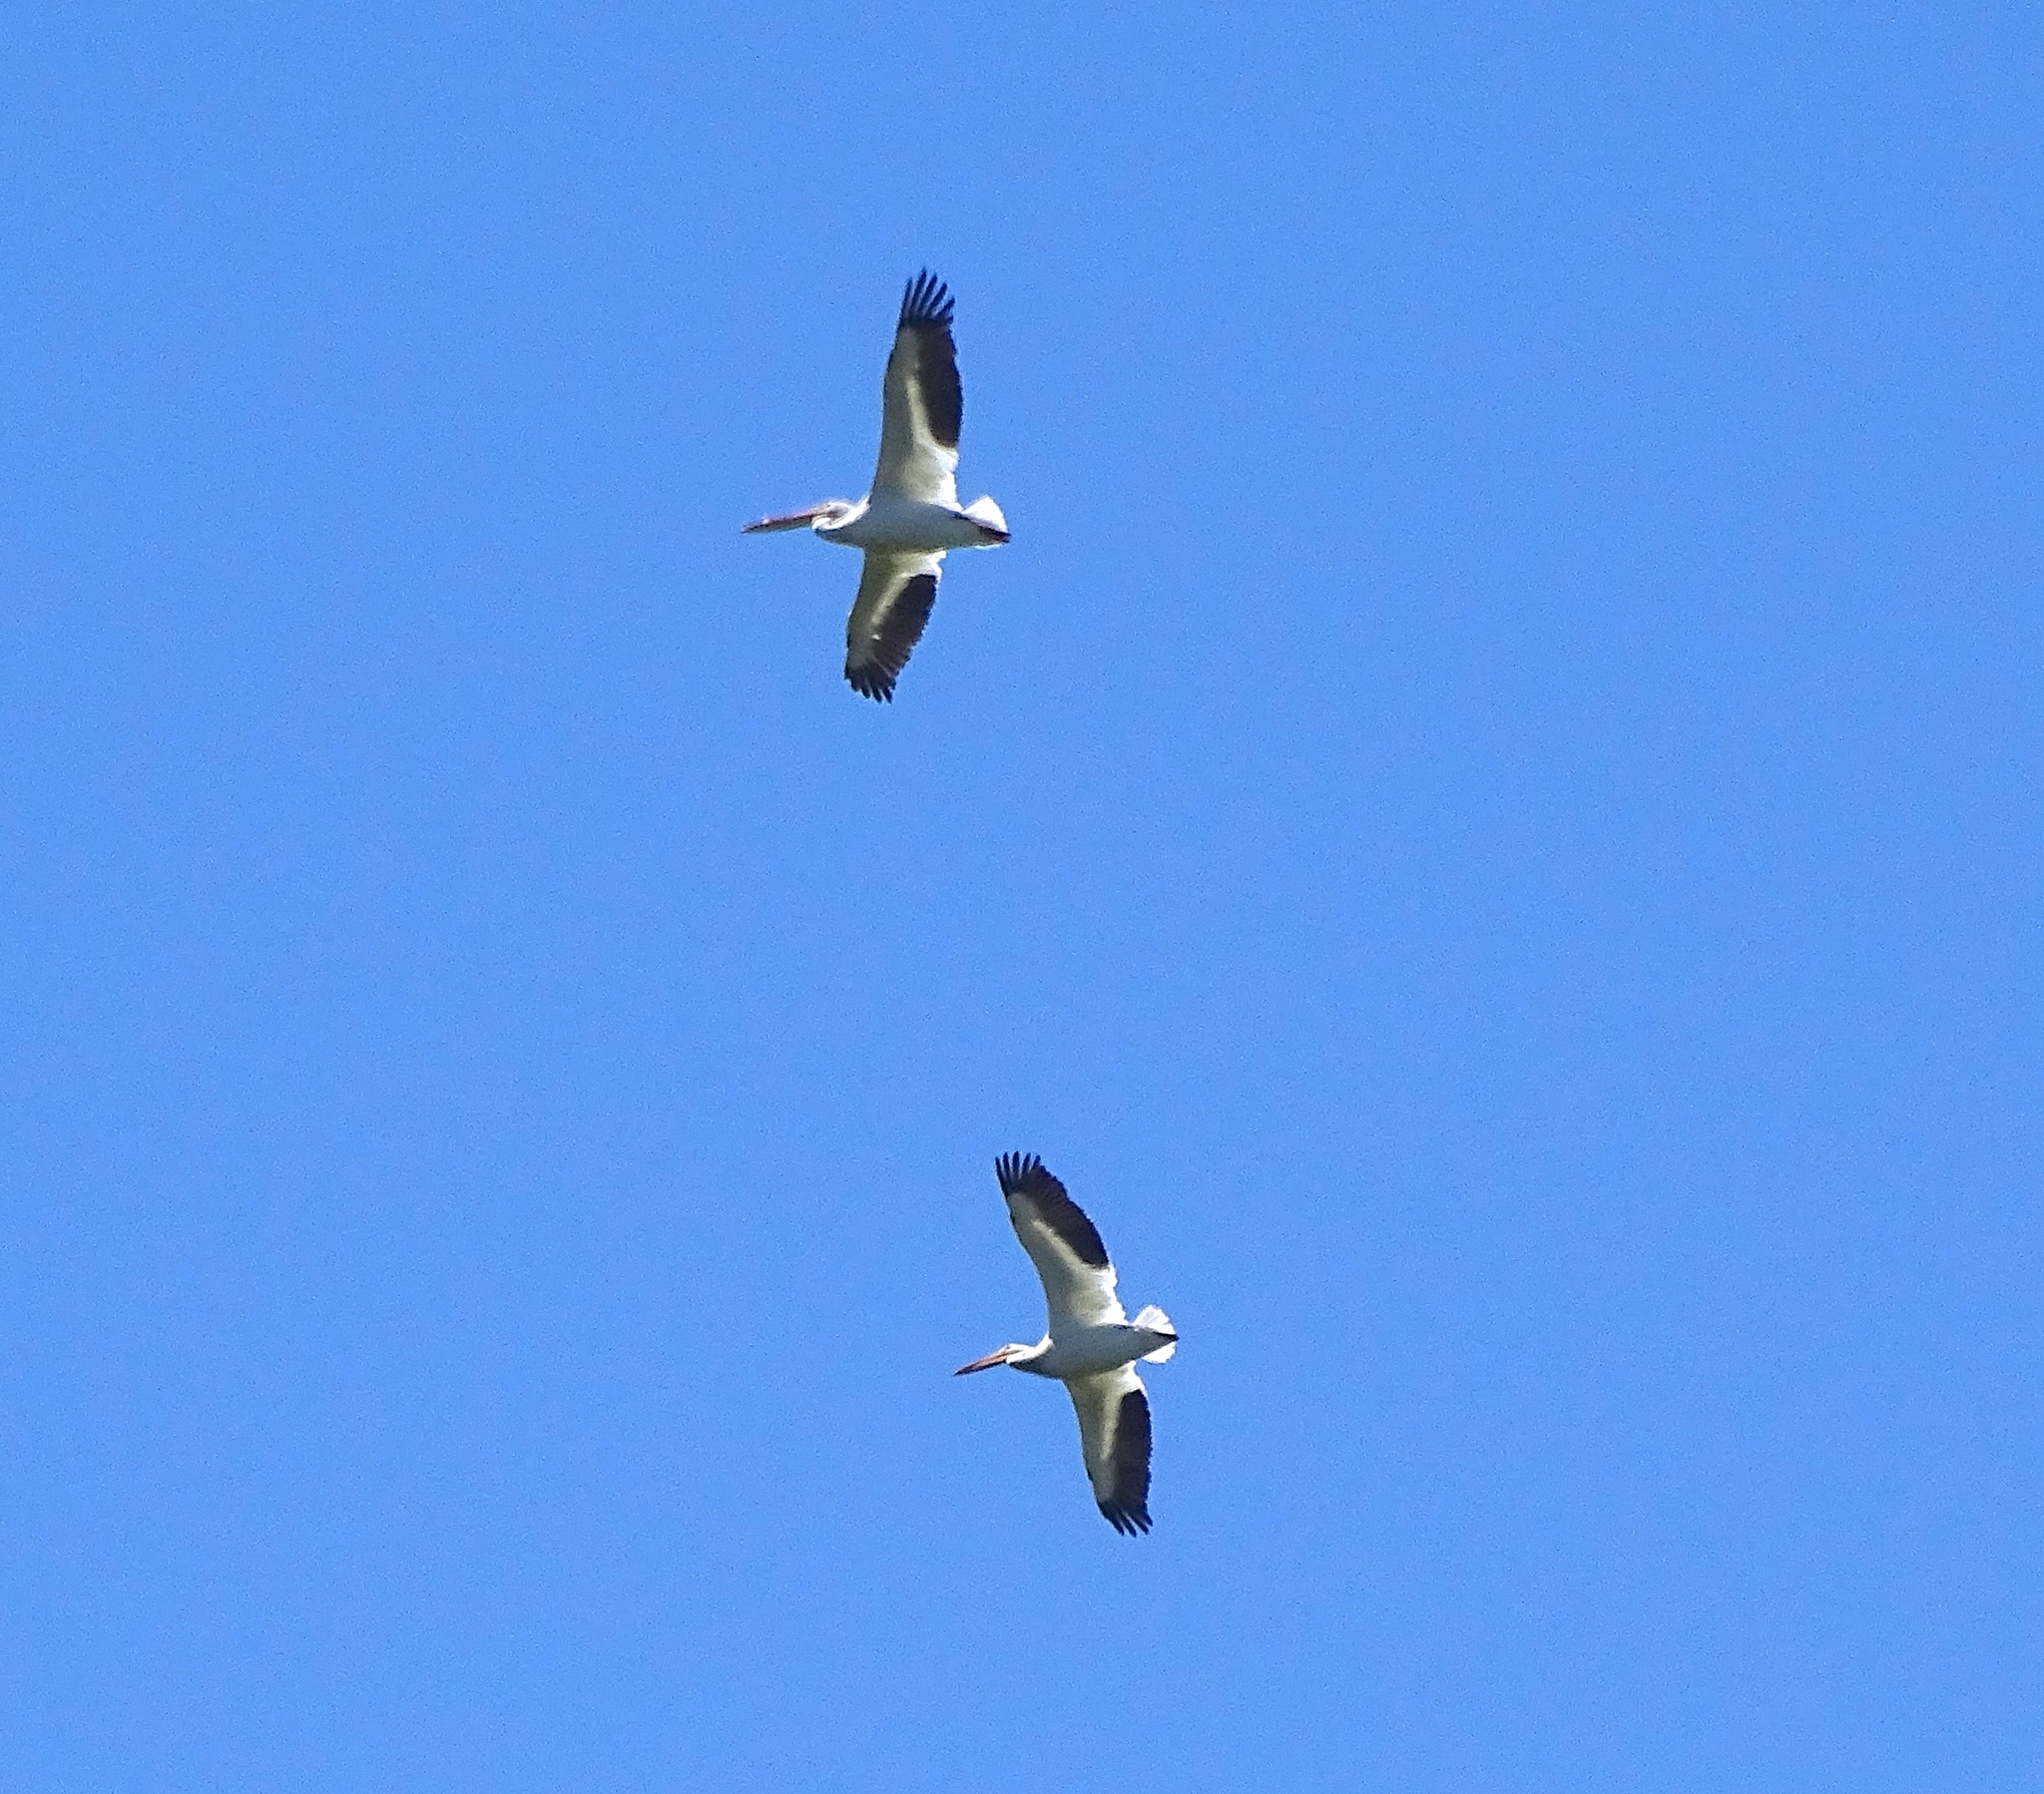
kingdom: Animalia
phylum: Chordata
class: Aves
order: Pelecaniformes
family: Pelecanidae
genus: Pelecanus
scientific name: Pelecanus erythrorhynchos
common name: American white pelican
